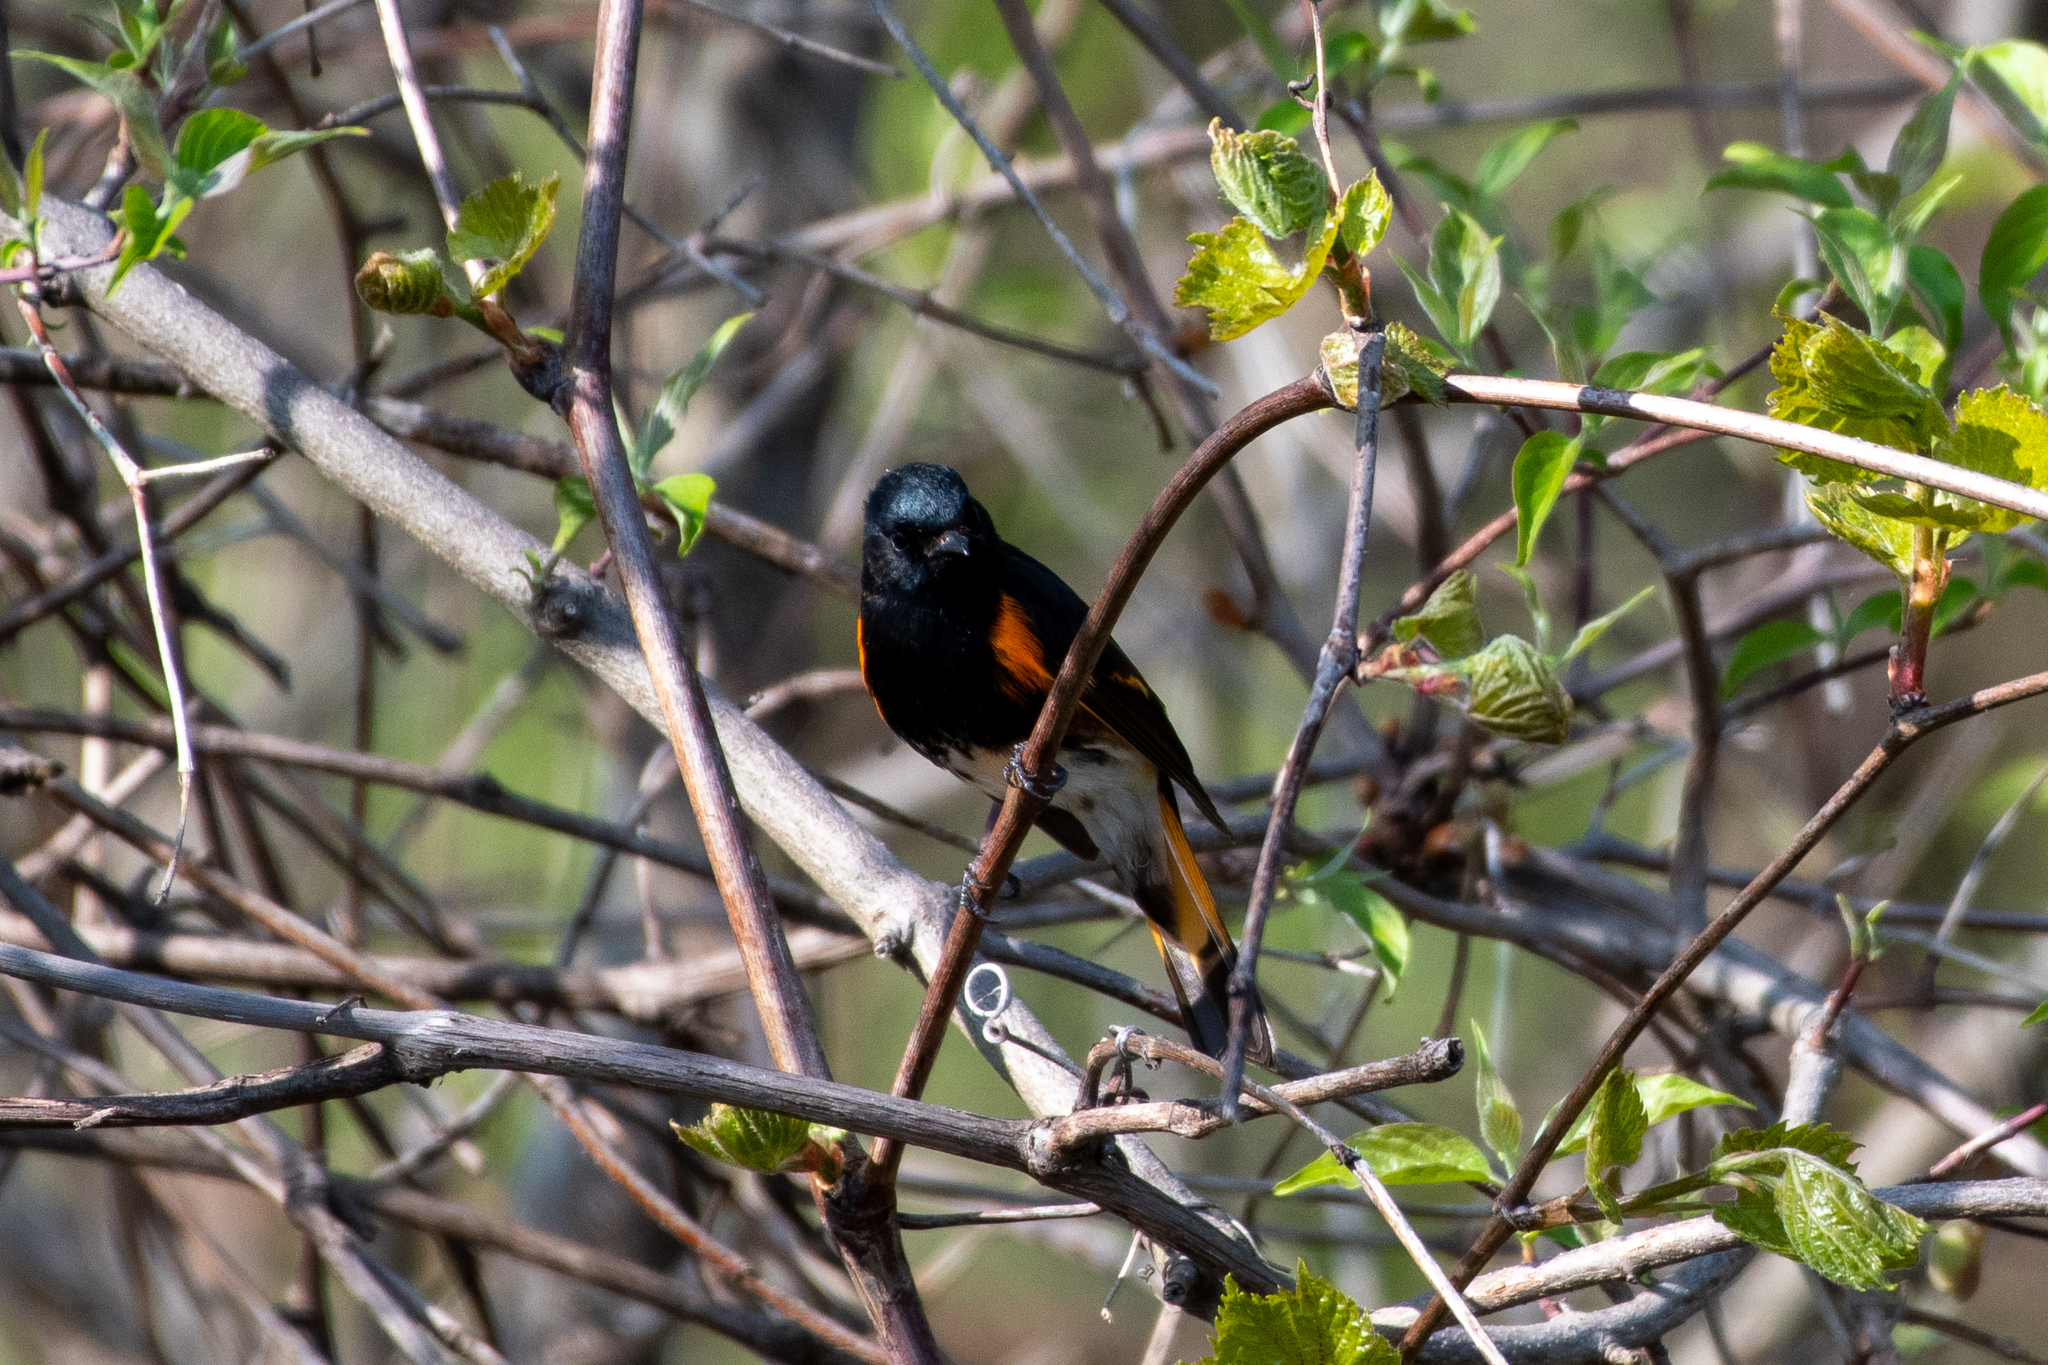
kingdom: Animalia
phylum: Chordata
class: Aves
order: Passeriformes
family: Parulidae
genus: Setophaga
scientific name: Setophaga ruticilla
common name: American redstart
